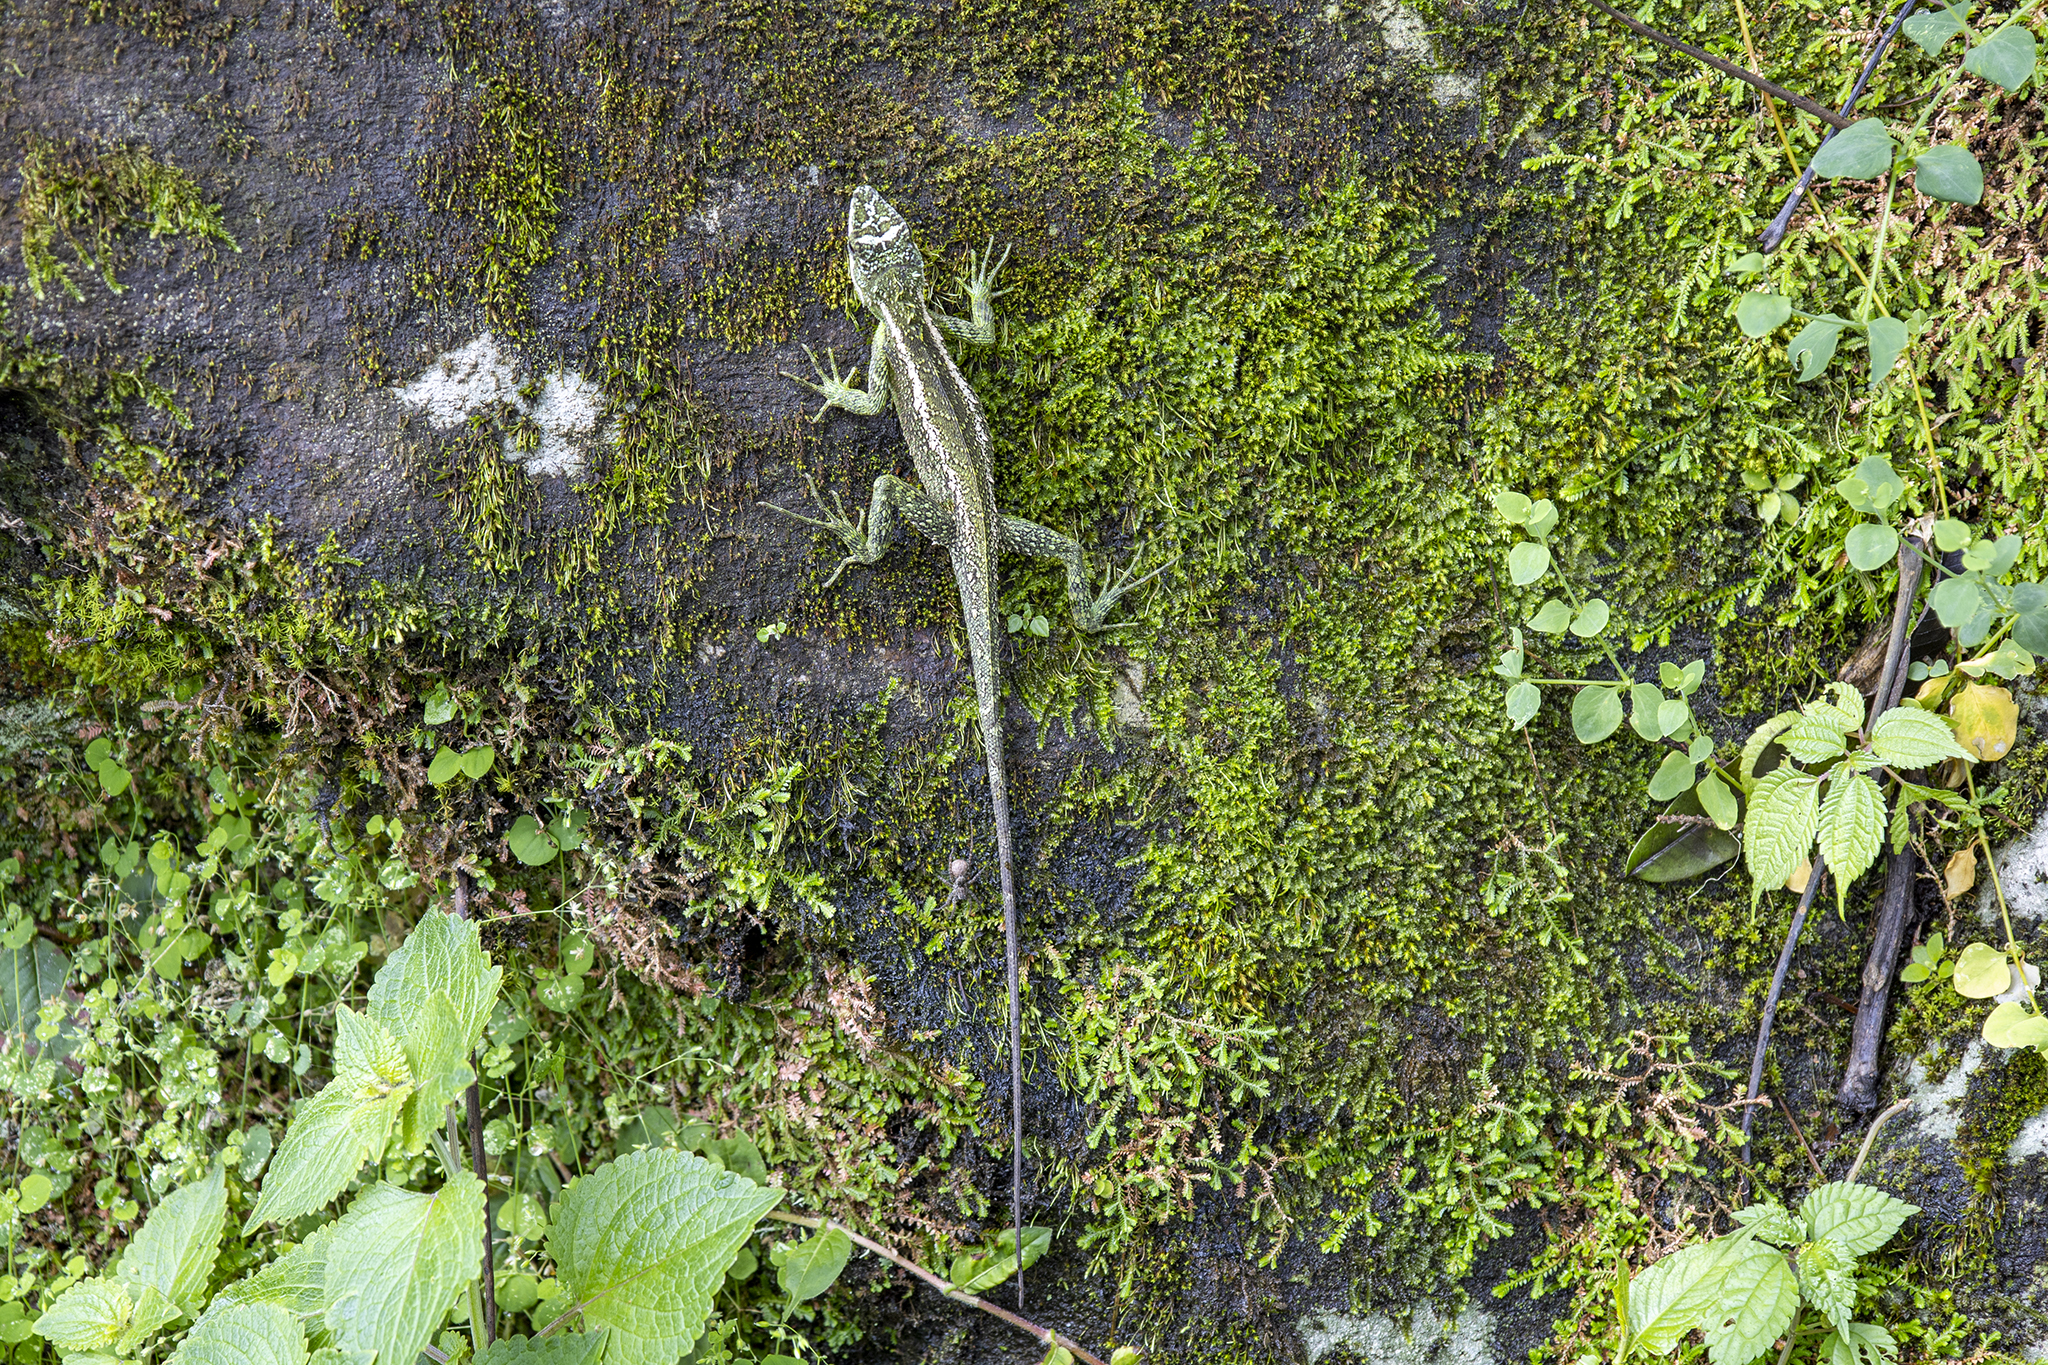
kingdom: Animalia
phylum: Chordata
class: Squamata
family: Agamidae
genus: Japalura
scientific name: Japalura variegata
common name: East himalayan mountain lizard
